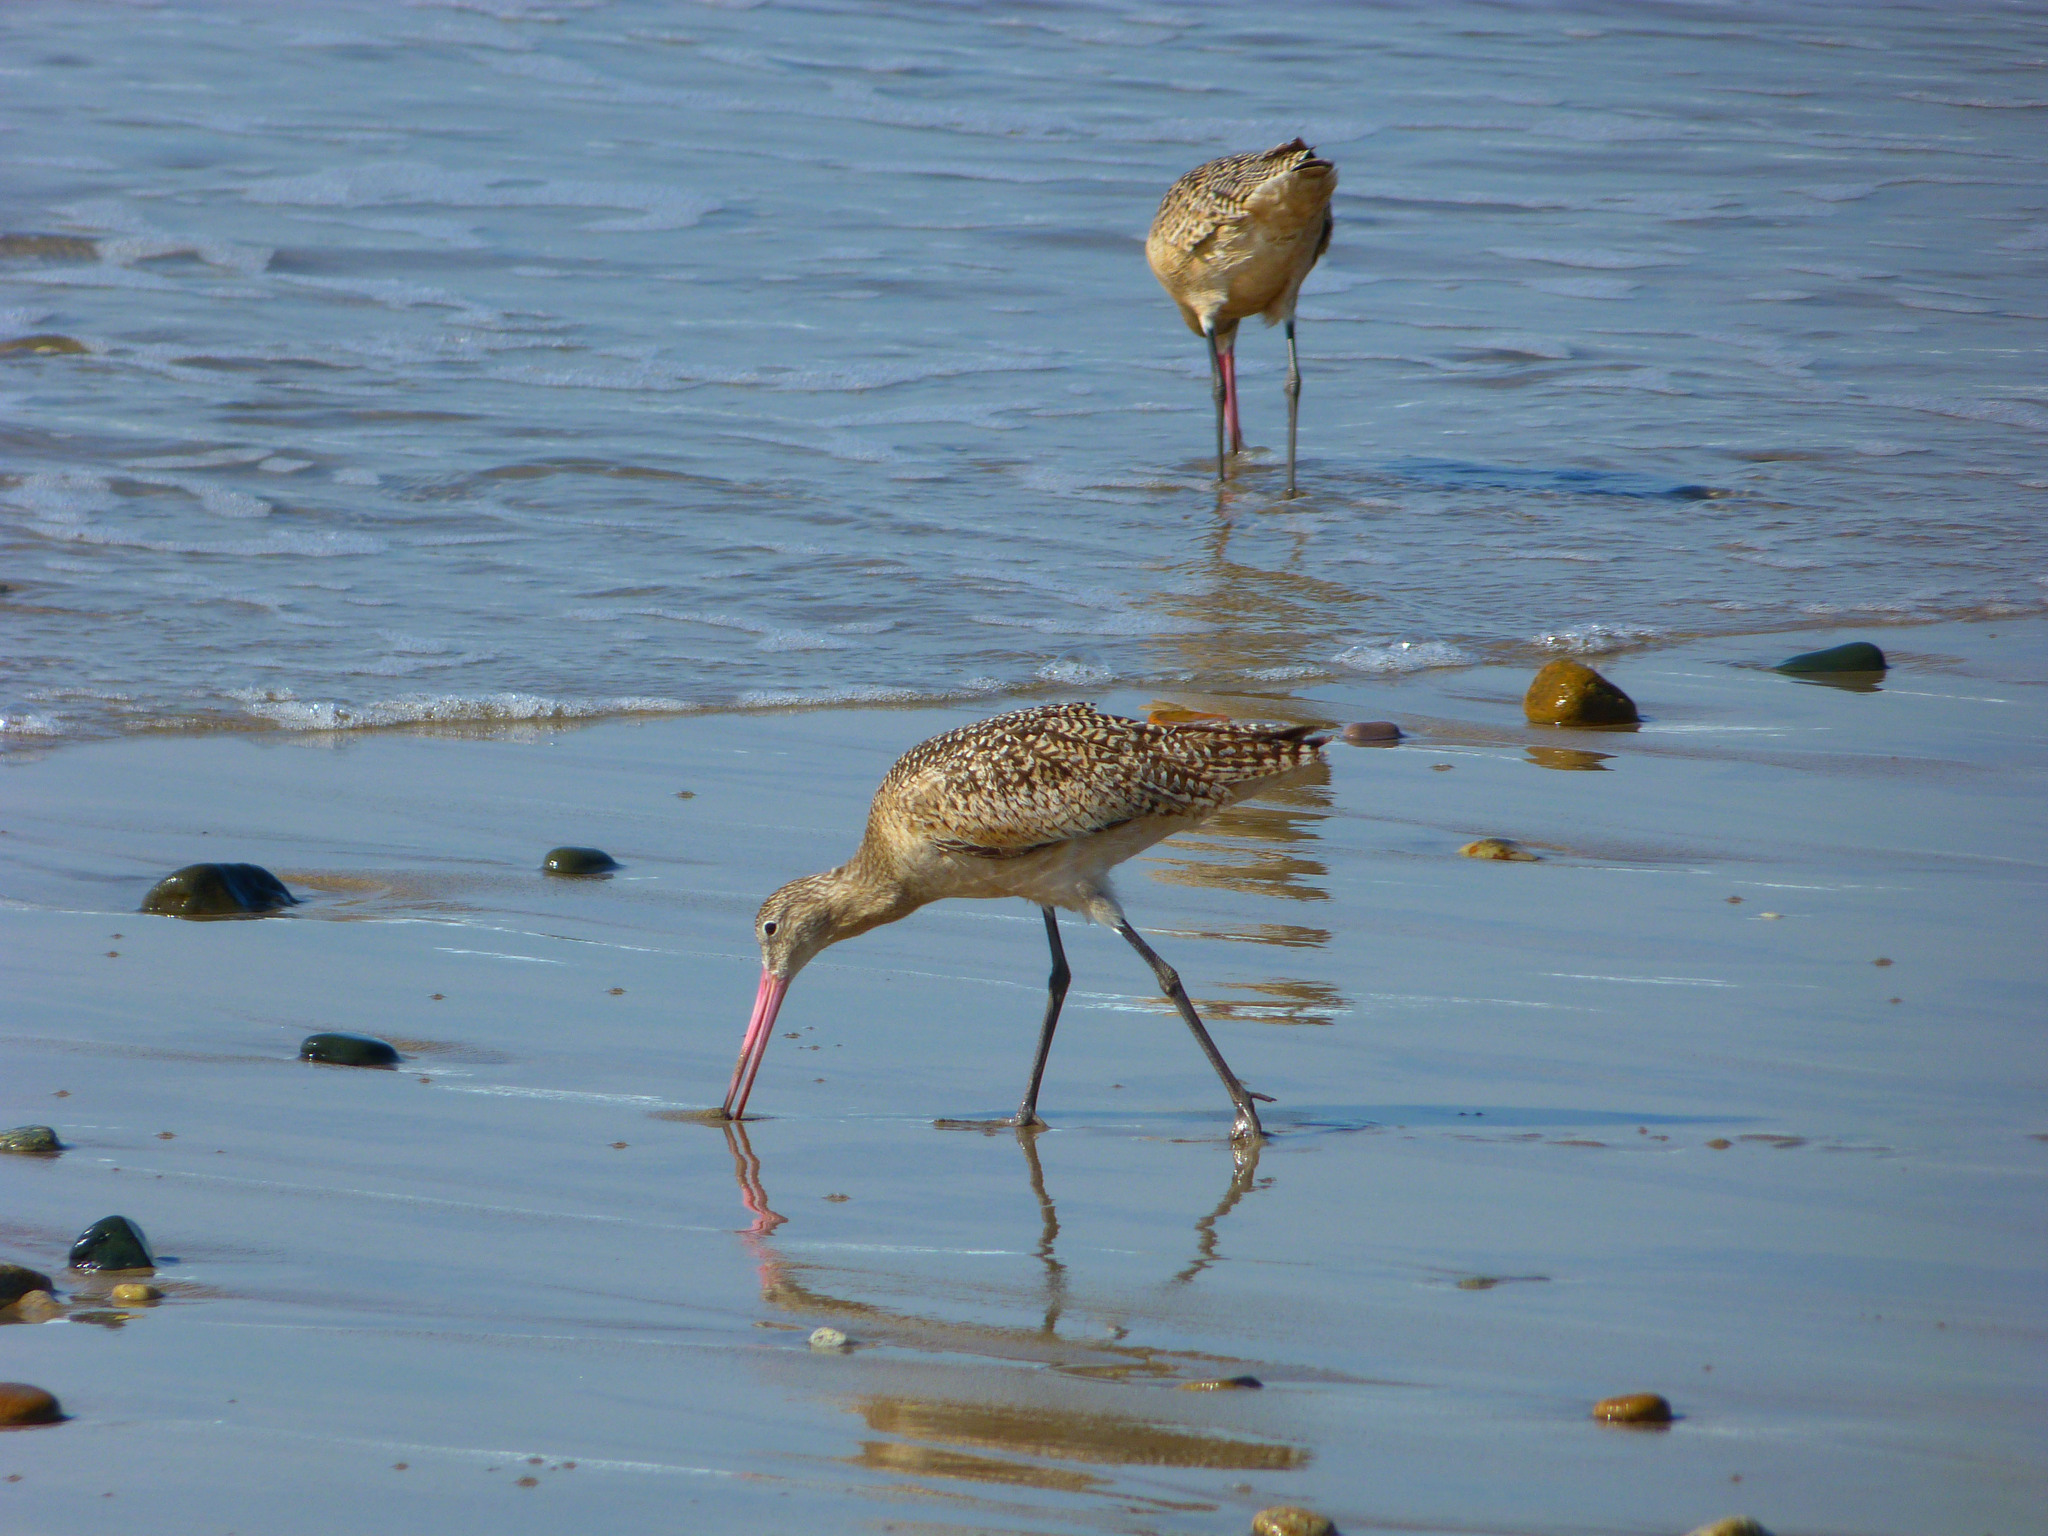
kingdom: Animalia
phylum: Chordata
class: Aves
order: Charadriiformes
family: Scolopacidae
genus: Limosa
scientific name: Limosa fedoa
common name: Marbled godwit
